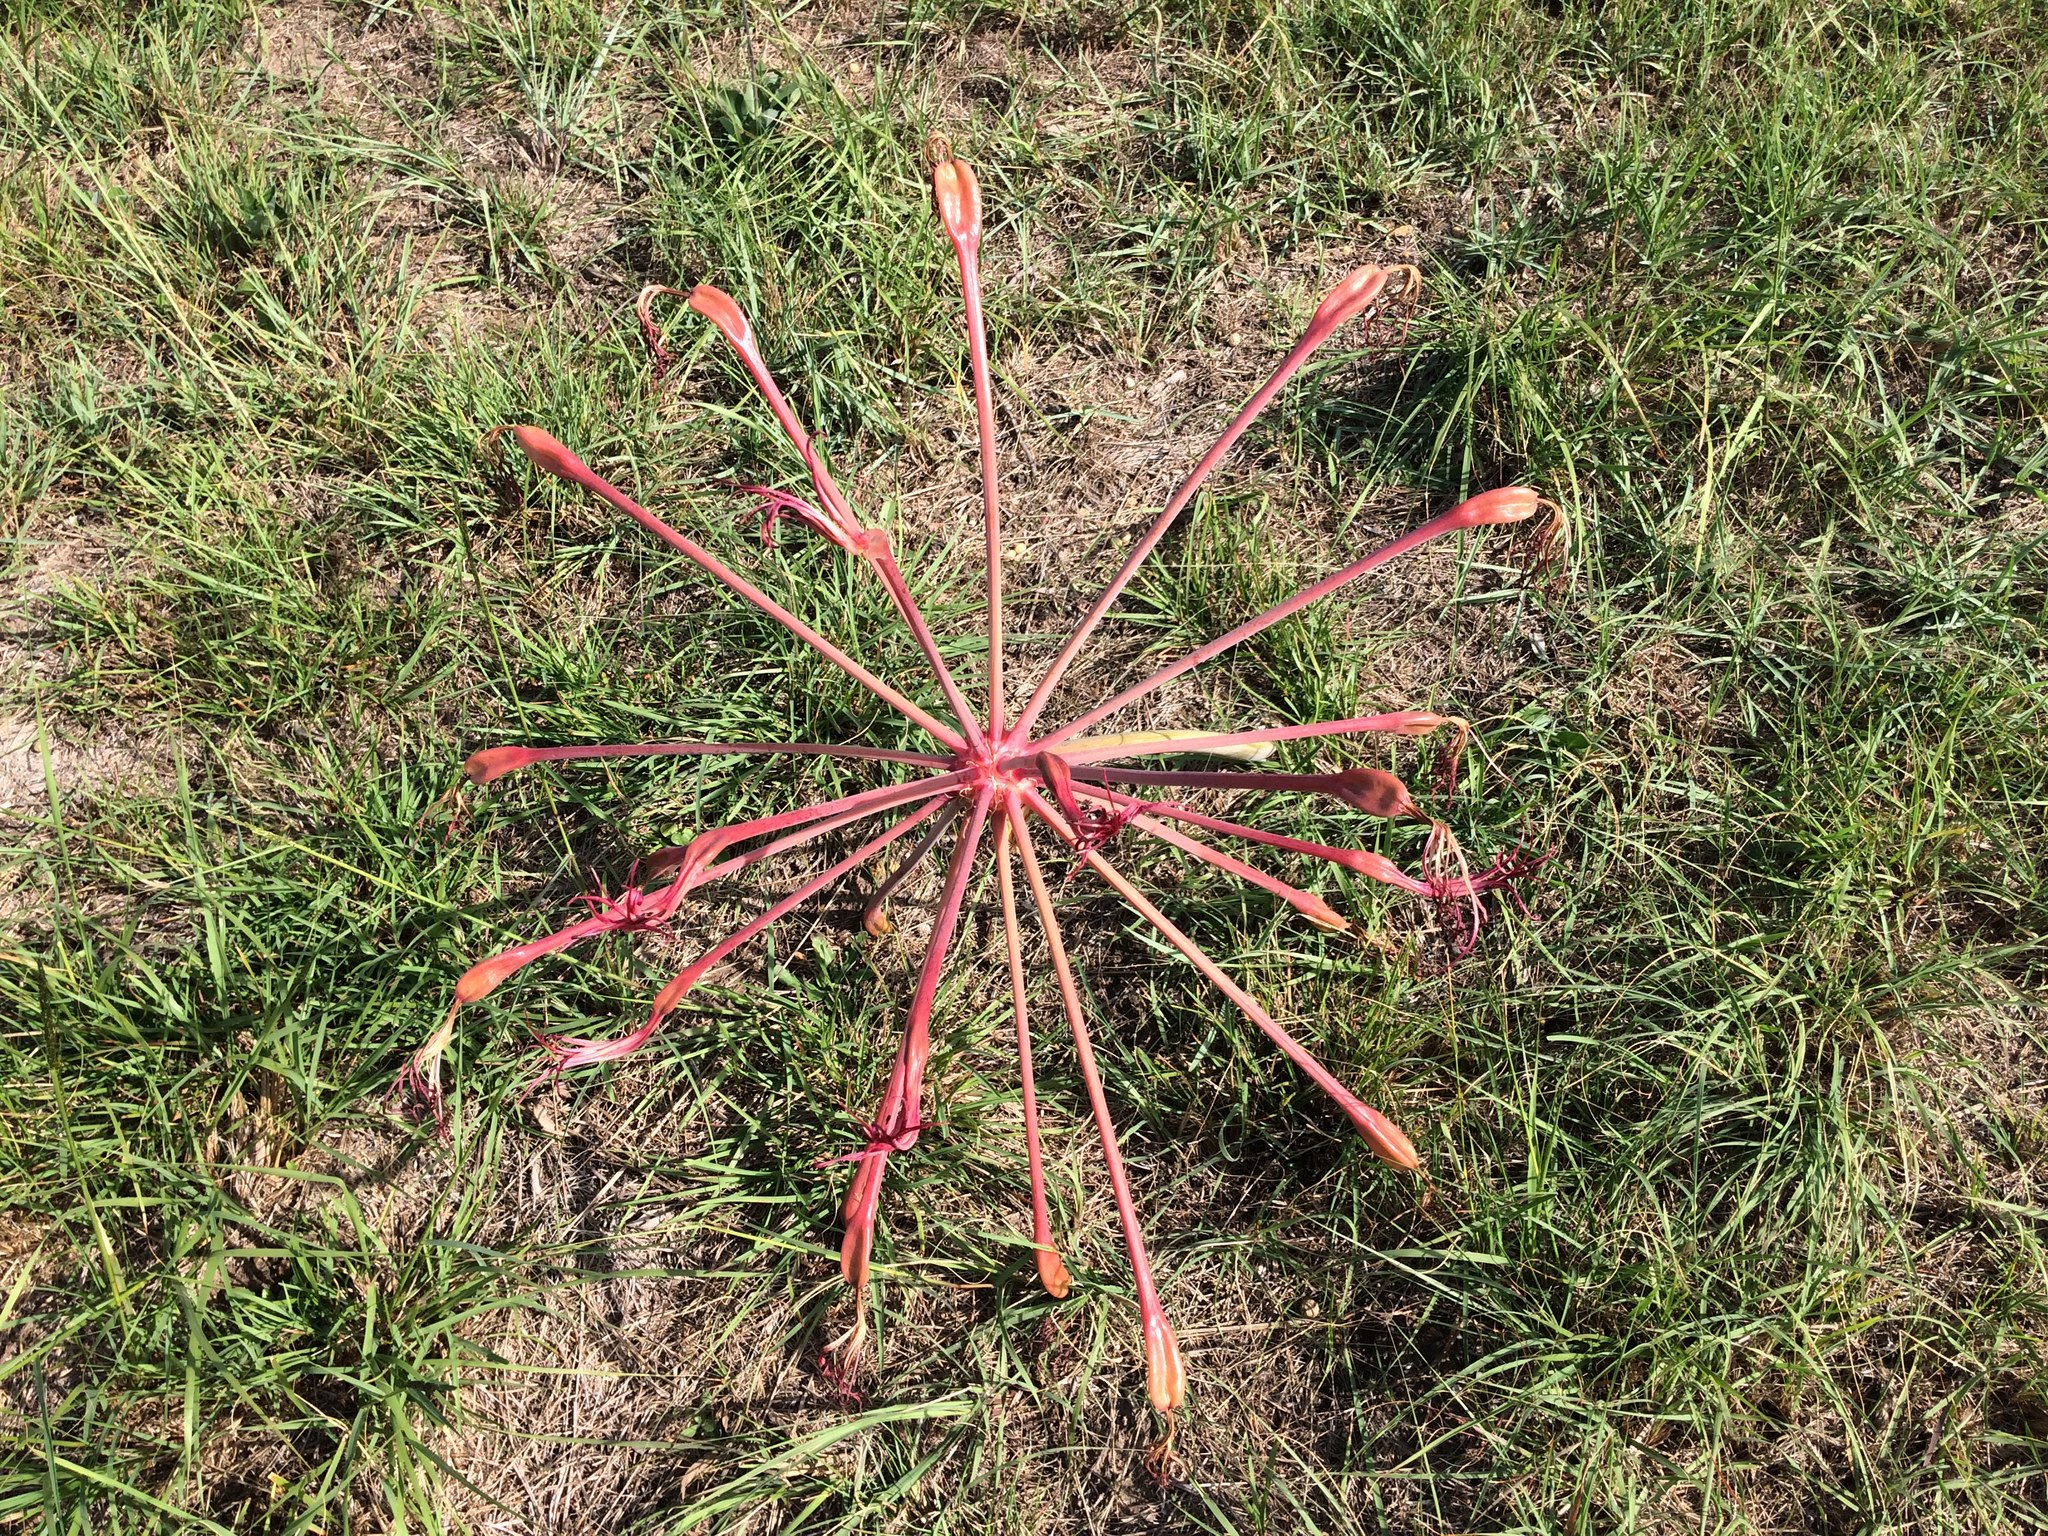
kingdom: Plantae
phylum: Tracheophyta
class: Liliopsida
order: Asparagales
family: Amaryllidaceae
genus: Brunsvigia
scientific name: Brunsvigia litoralis
